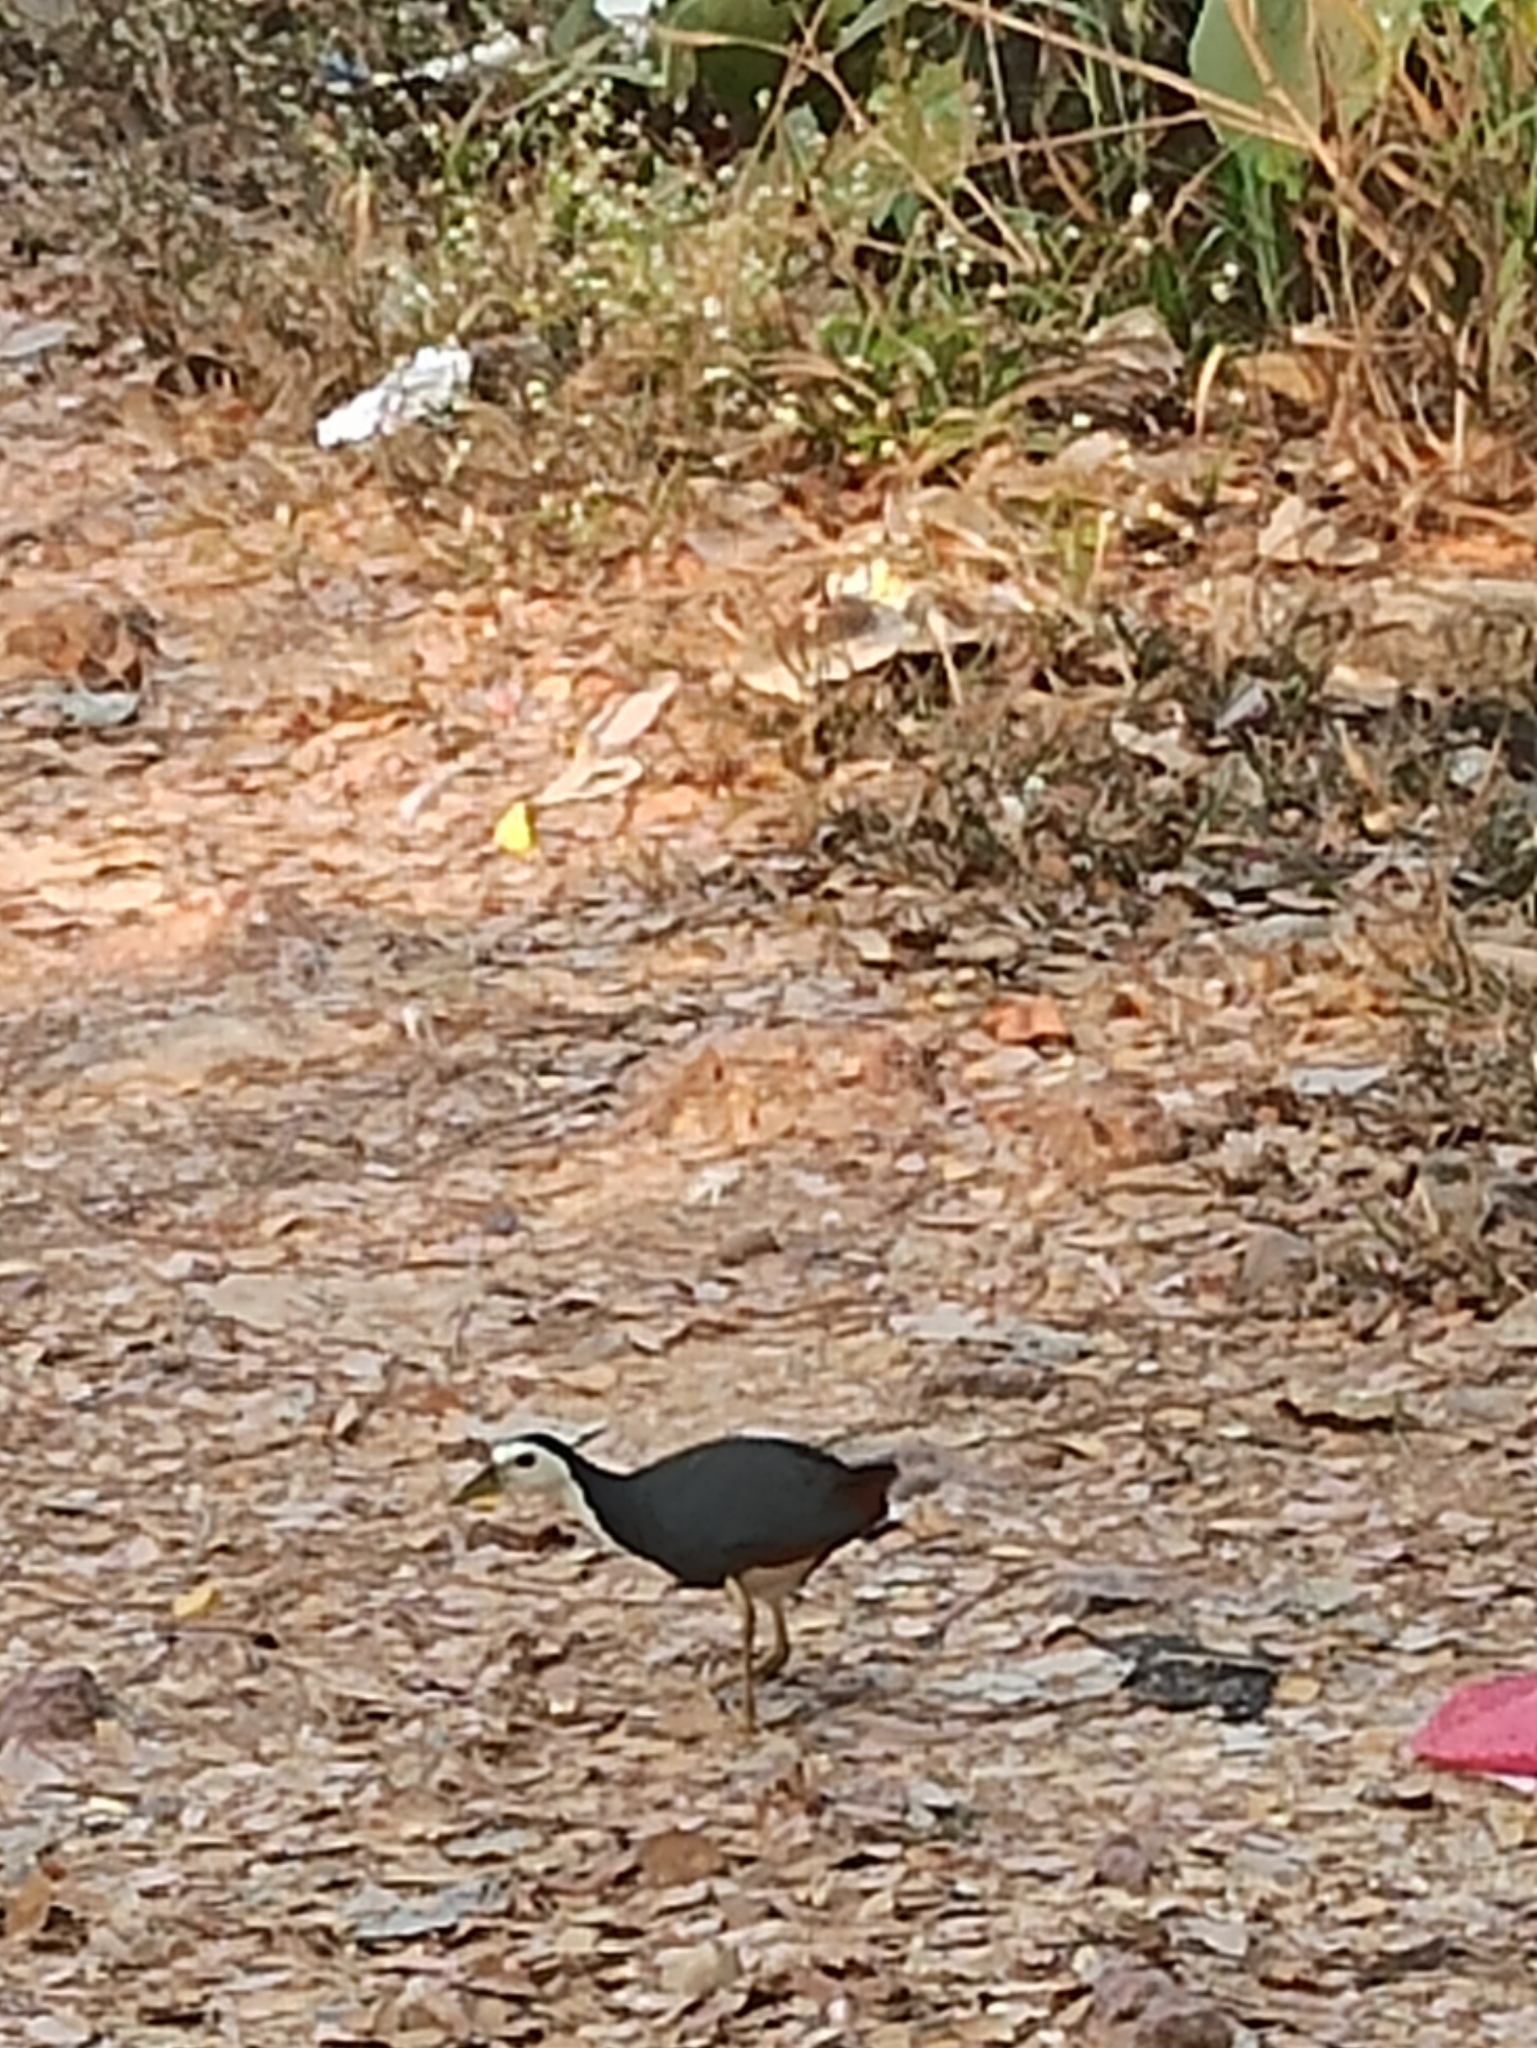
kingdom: Animalia
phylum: Chordata
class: Aves
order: Gruiformes
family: Rallidae
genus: Amaurornis
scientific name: Amaurornis phoenicurus
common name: White-breasted waterhen
